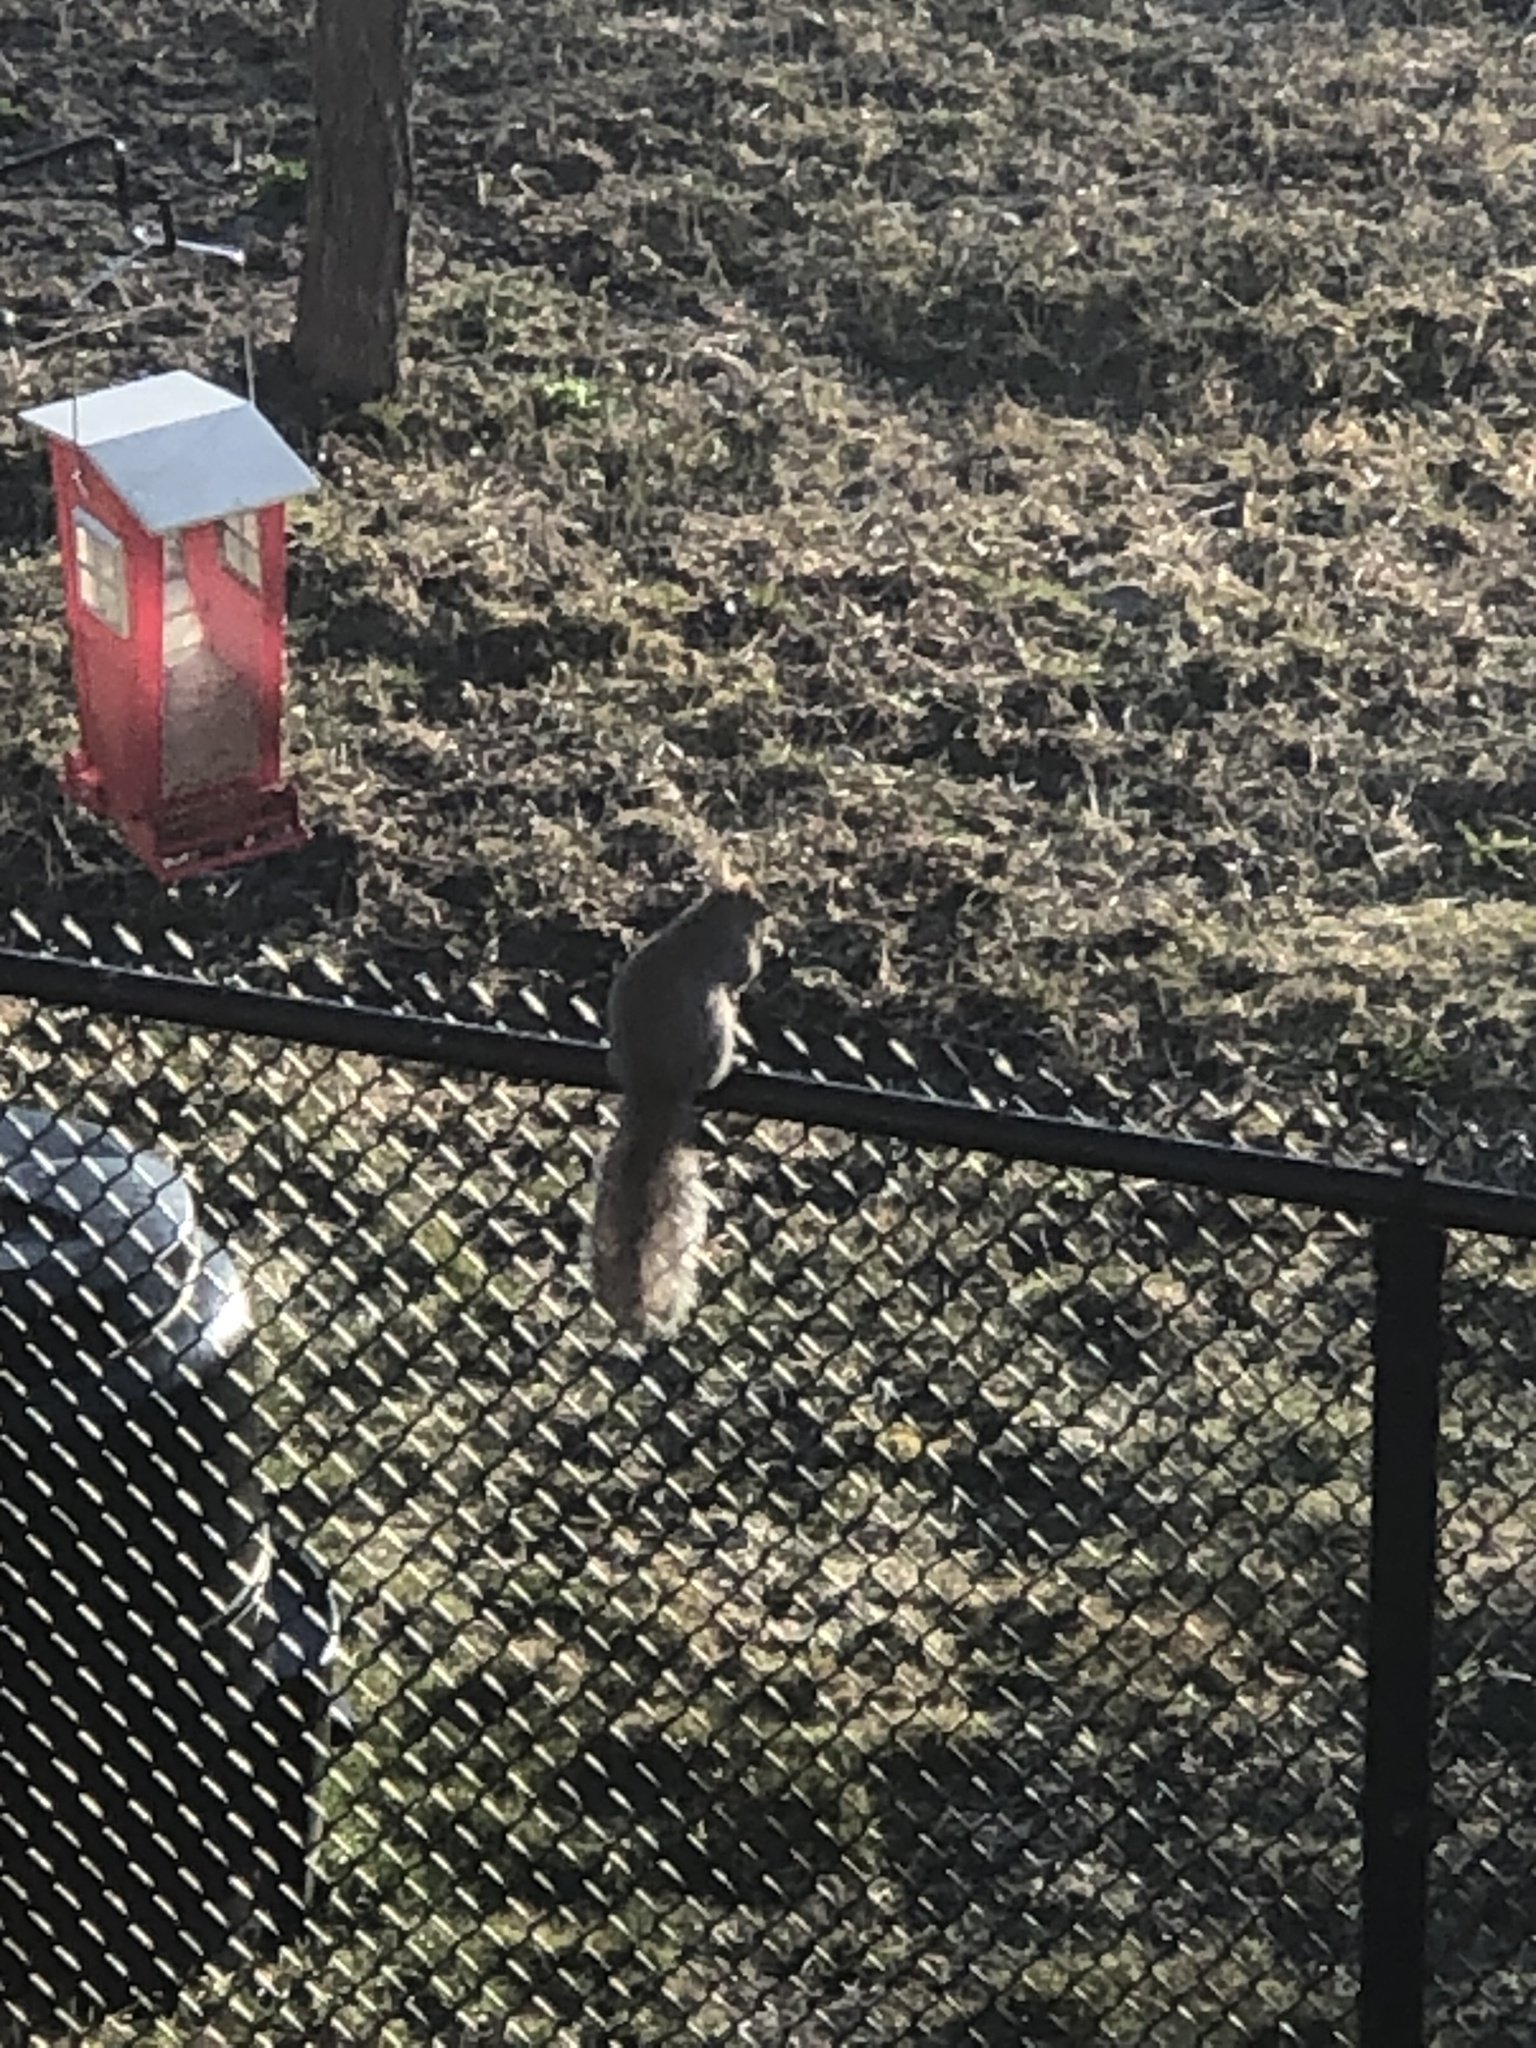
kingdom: Animalia
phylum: Chordata
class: Mammalia
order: Rodentia
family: Sciuridae
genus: Sciurus
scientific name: Sciurus carolinensis
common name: Eastern gray squirrel
